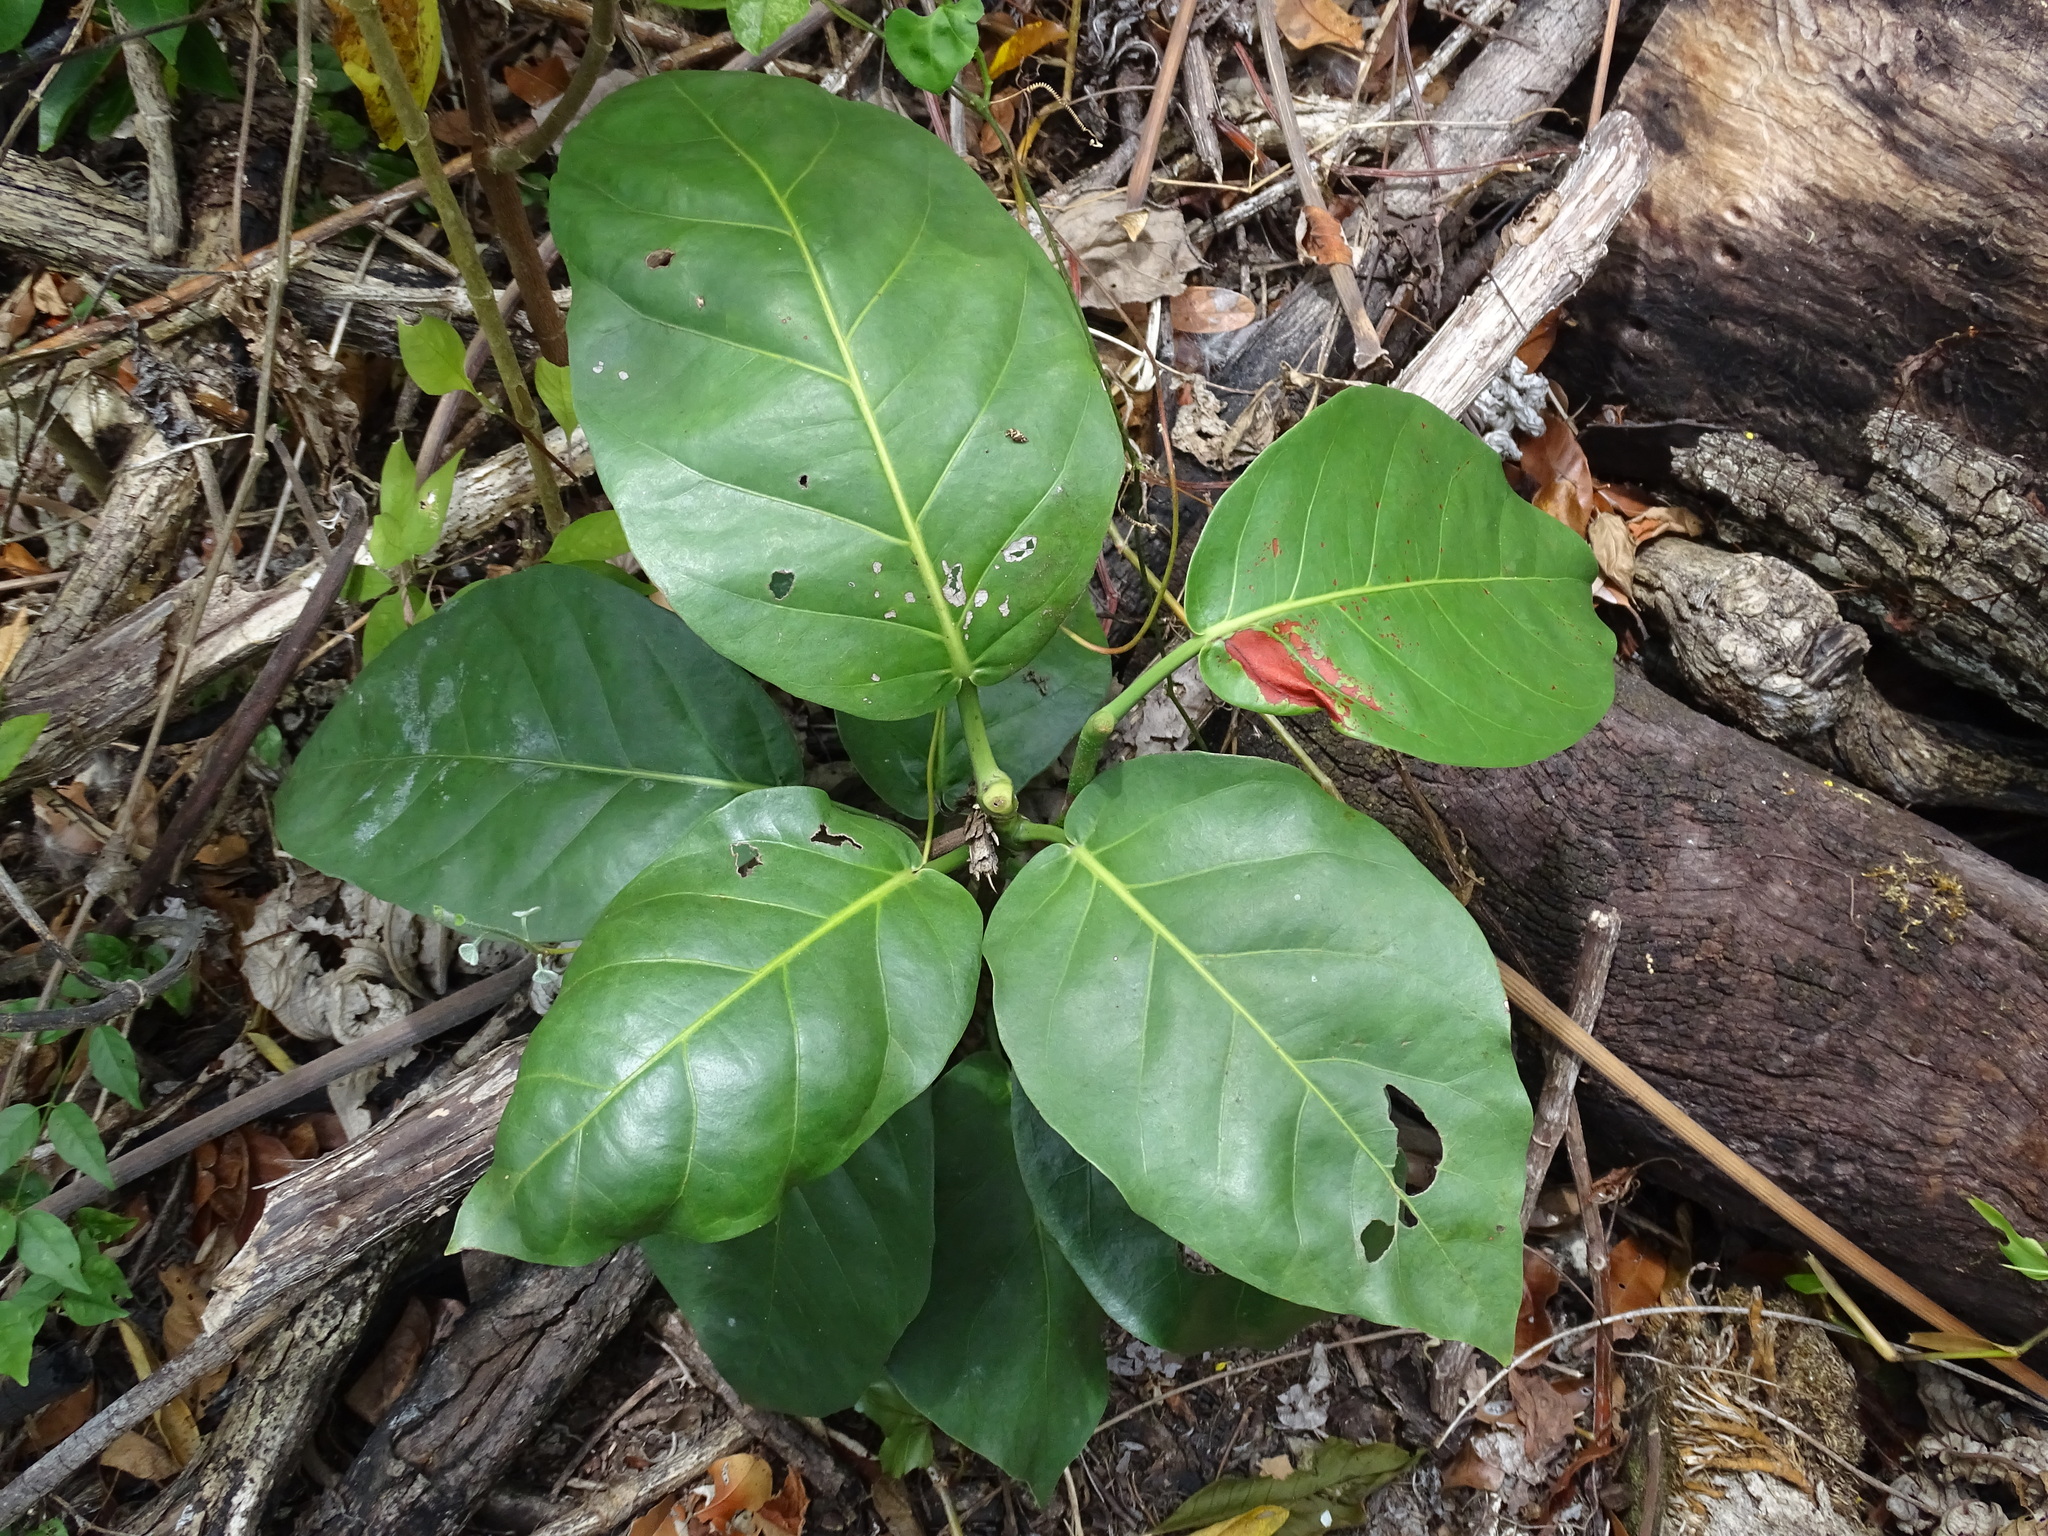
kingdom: Plantae
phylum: Tracheophyta
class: Magnoliopsida
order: Caryophyllales
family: Polygonaceae
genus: Coccoloba
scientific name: Coccoloba spicata
